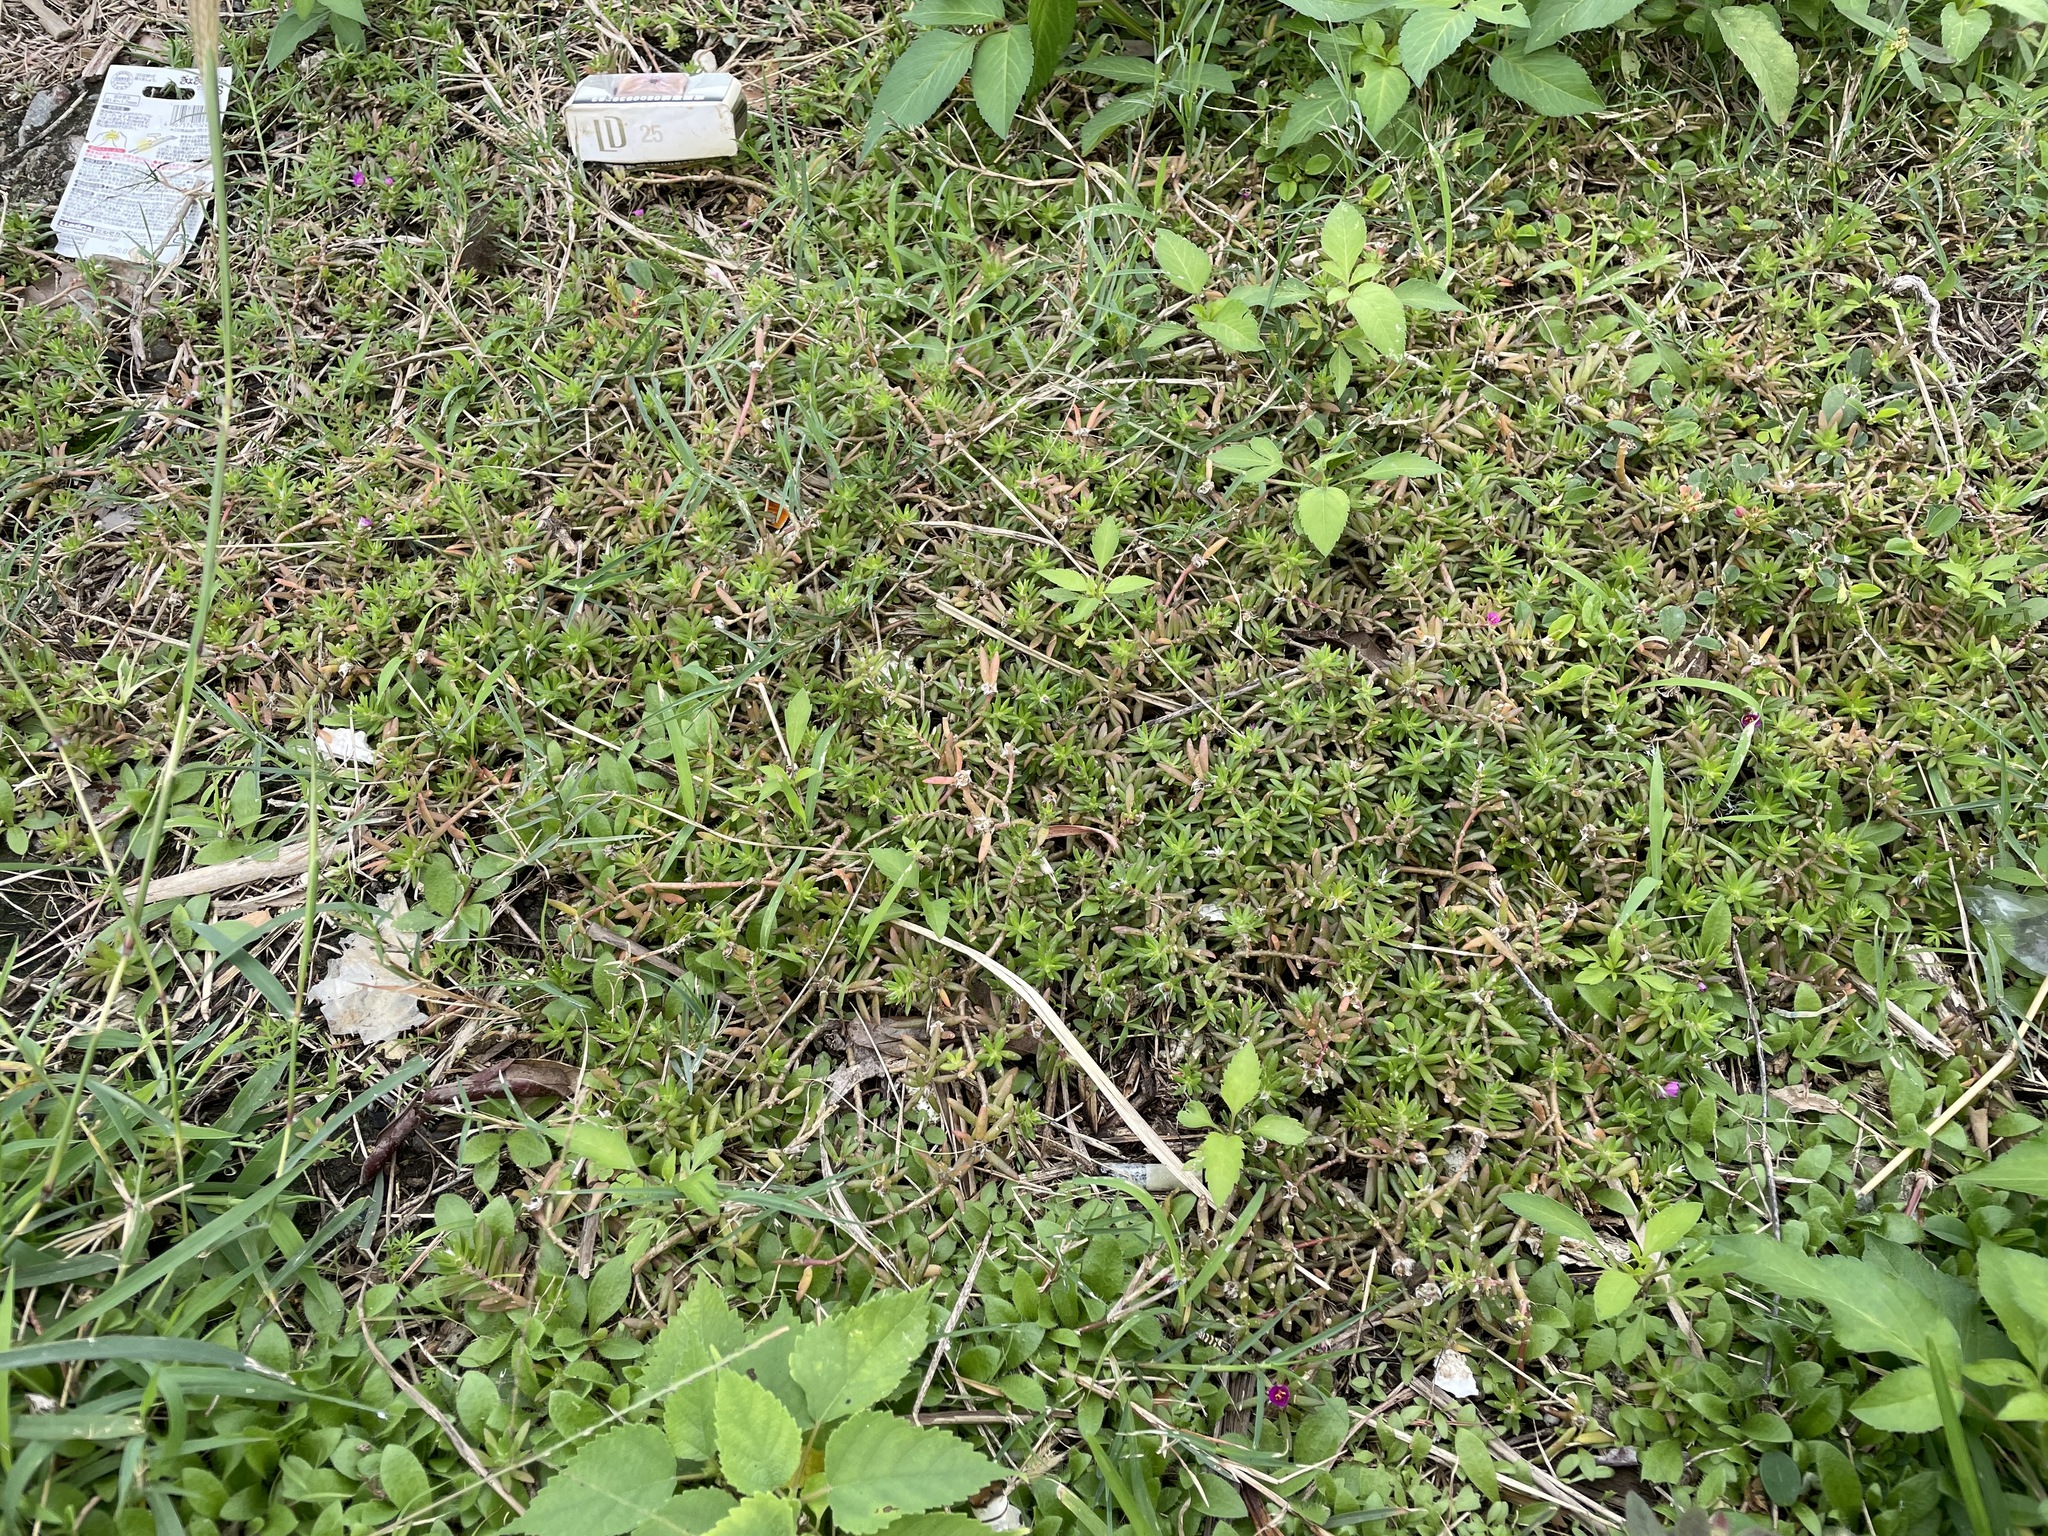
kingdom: Plantae
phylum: Tracheophyta
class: Magnoliopsida
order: Caryophyllales
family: Portulacaceae
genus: Portulaca
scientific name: Portulaca pilosa
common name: Kiss me quick
